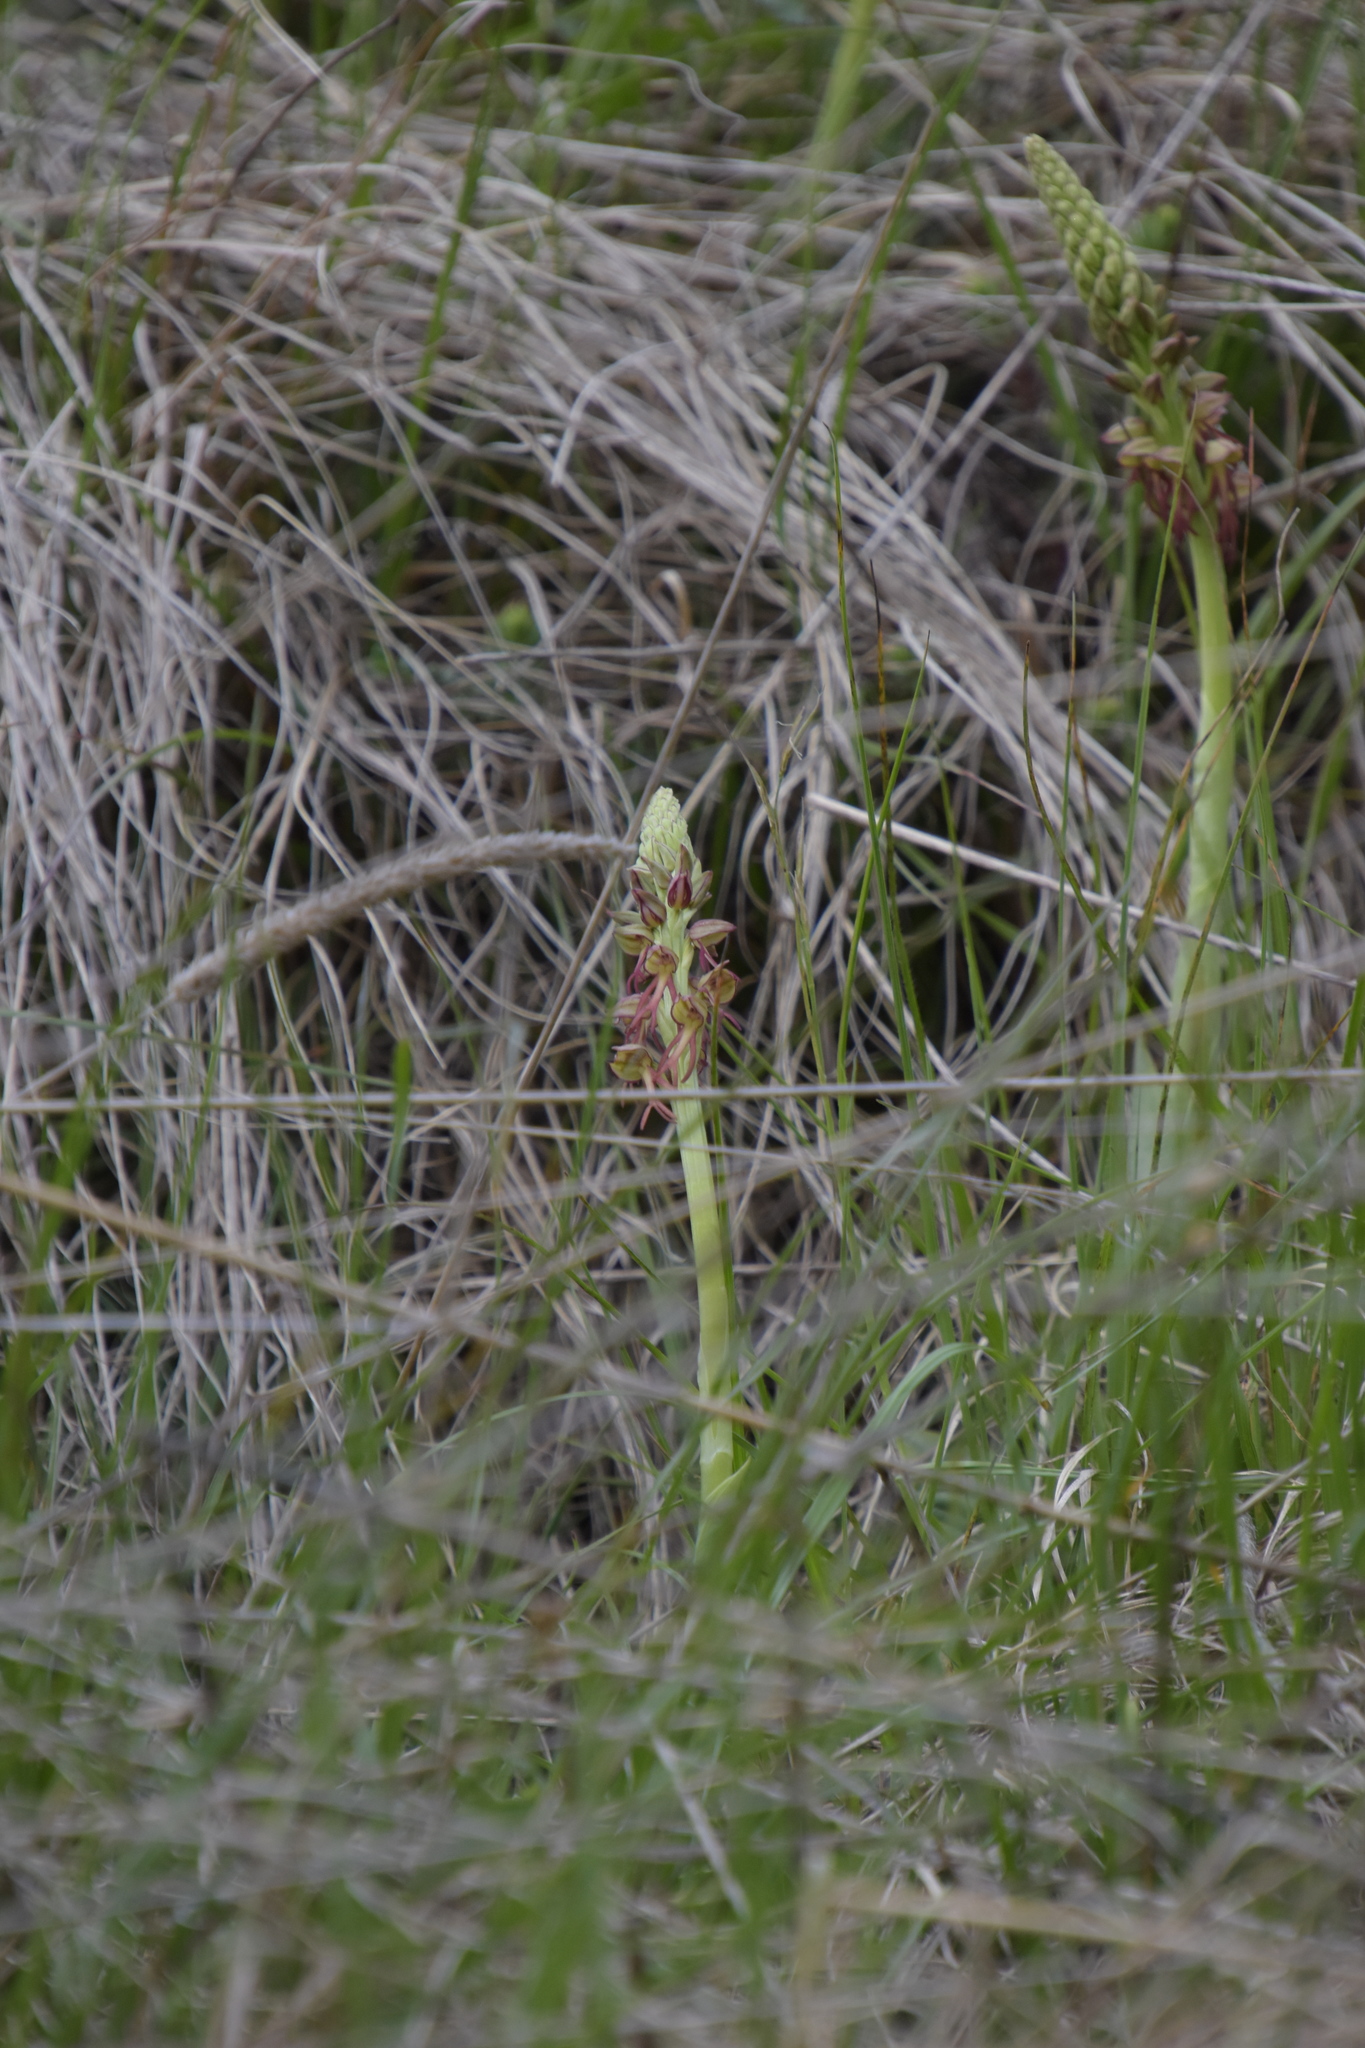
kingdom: Plantae
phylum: Tracheophyta
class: Liliopsida
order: Asparagales
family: Orchidaceae
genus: Orchis
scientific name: Orchis anthropophora
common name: Man orchid
